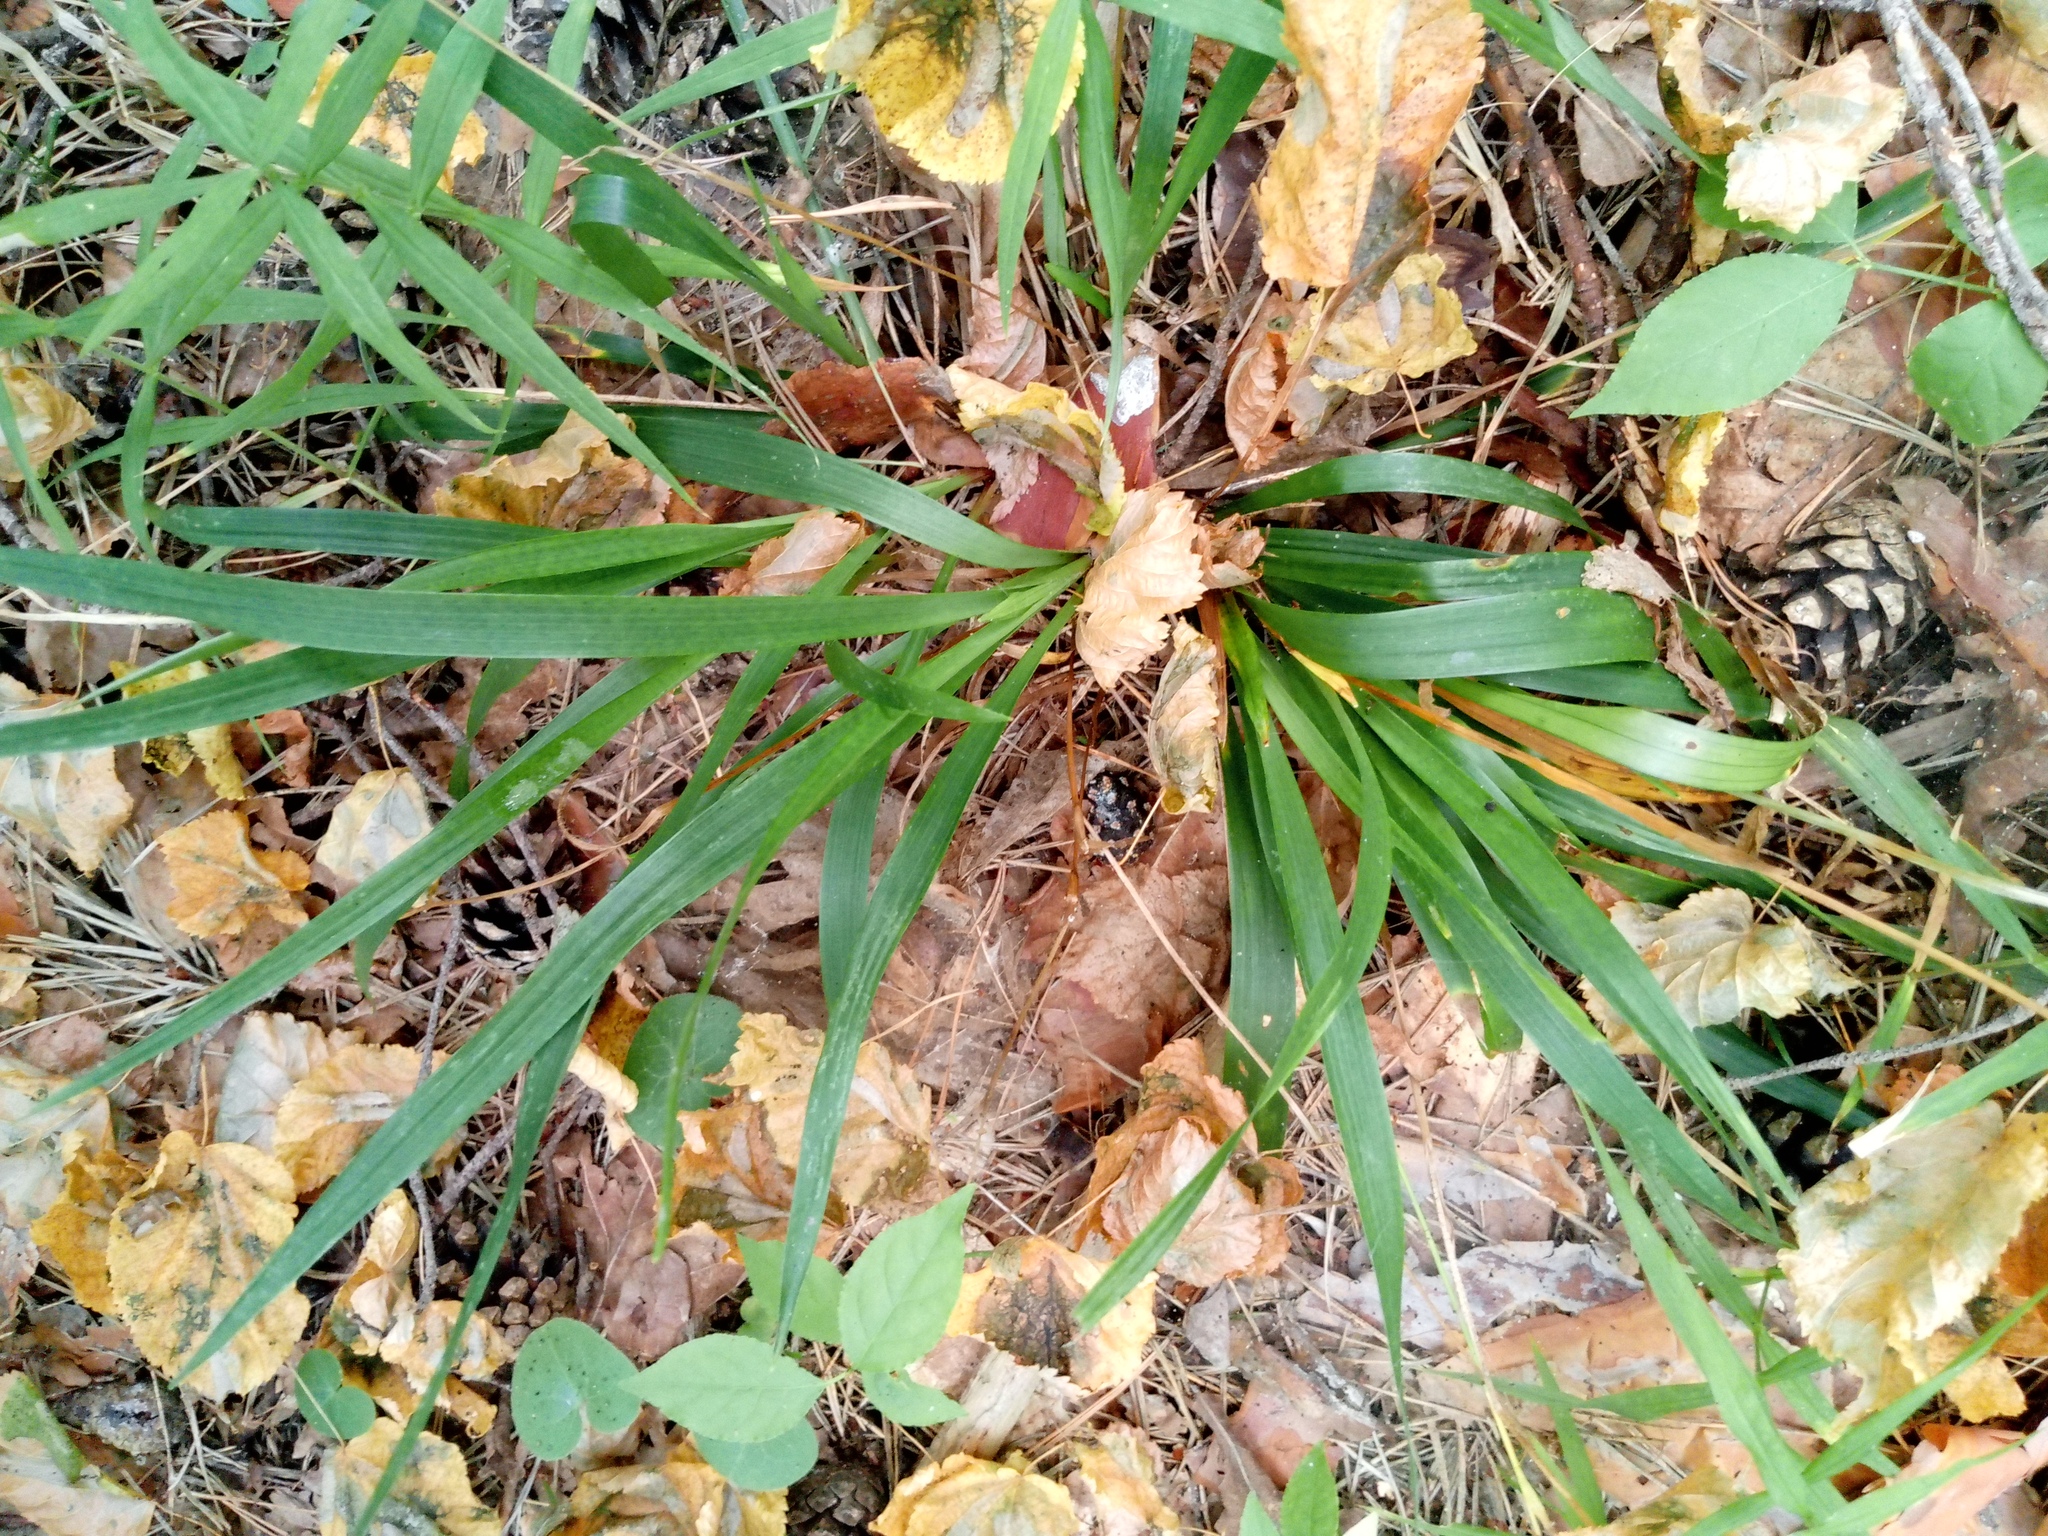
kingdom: Plantae
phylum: Tracheophyta
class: Liliopsida
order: Poales
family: Juncaceae
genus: Luzula
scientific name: Luzula pilosa
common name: Hairy wood-rush
